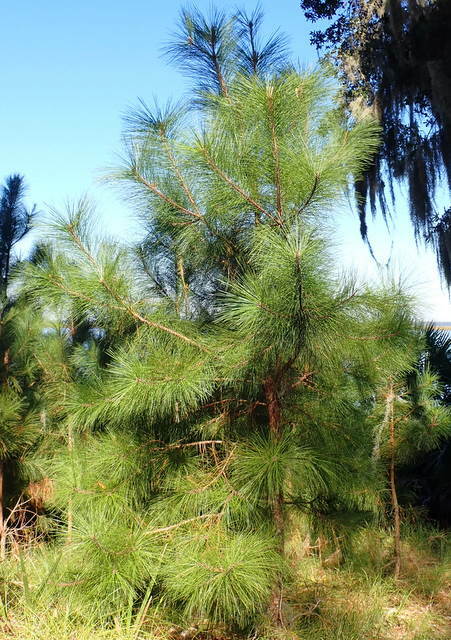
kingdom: Plantae
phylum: Tracheophyta
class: Pinopsida
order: Pinales
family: Pinaceae
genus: Pinus
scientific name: Pinus elliottii
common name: Slash pine
